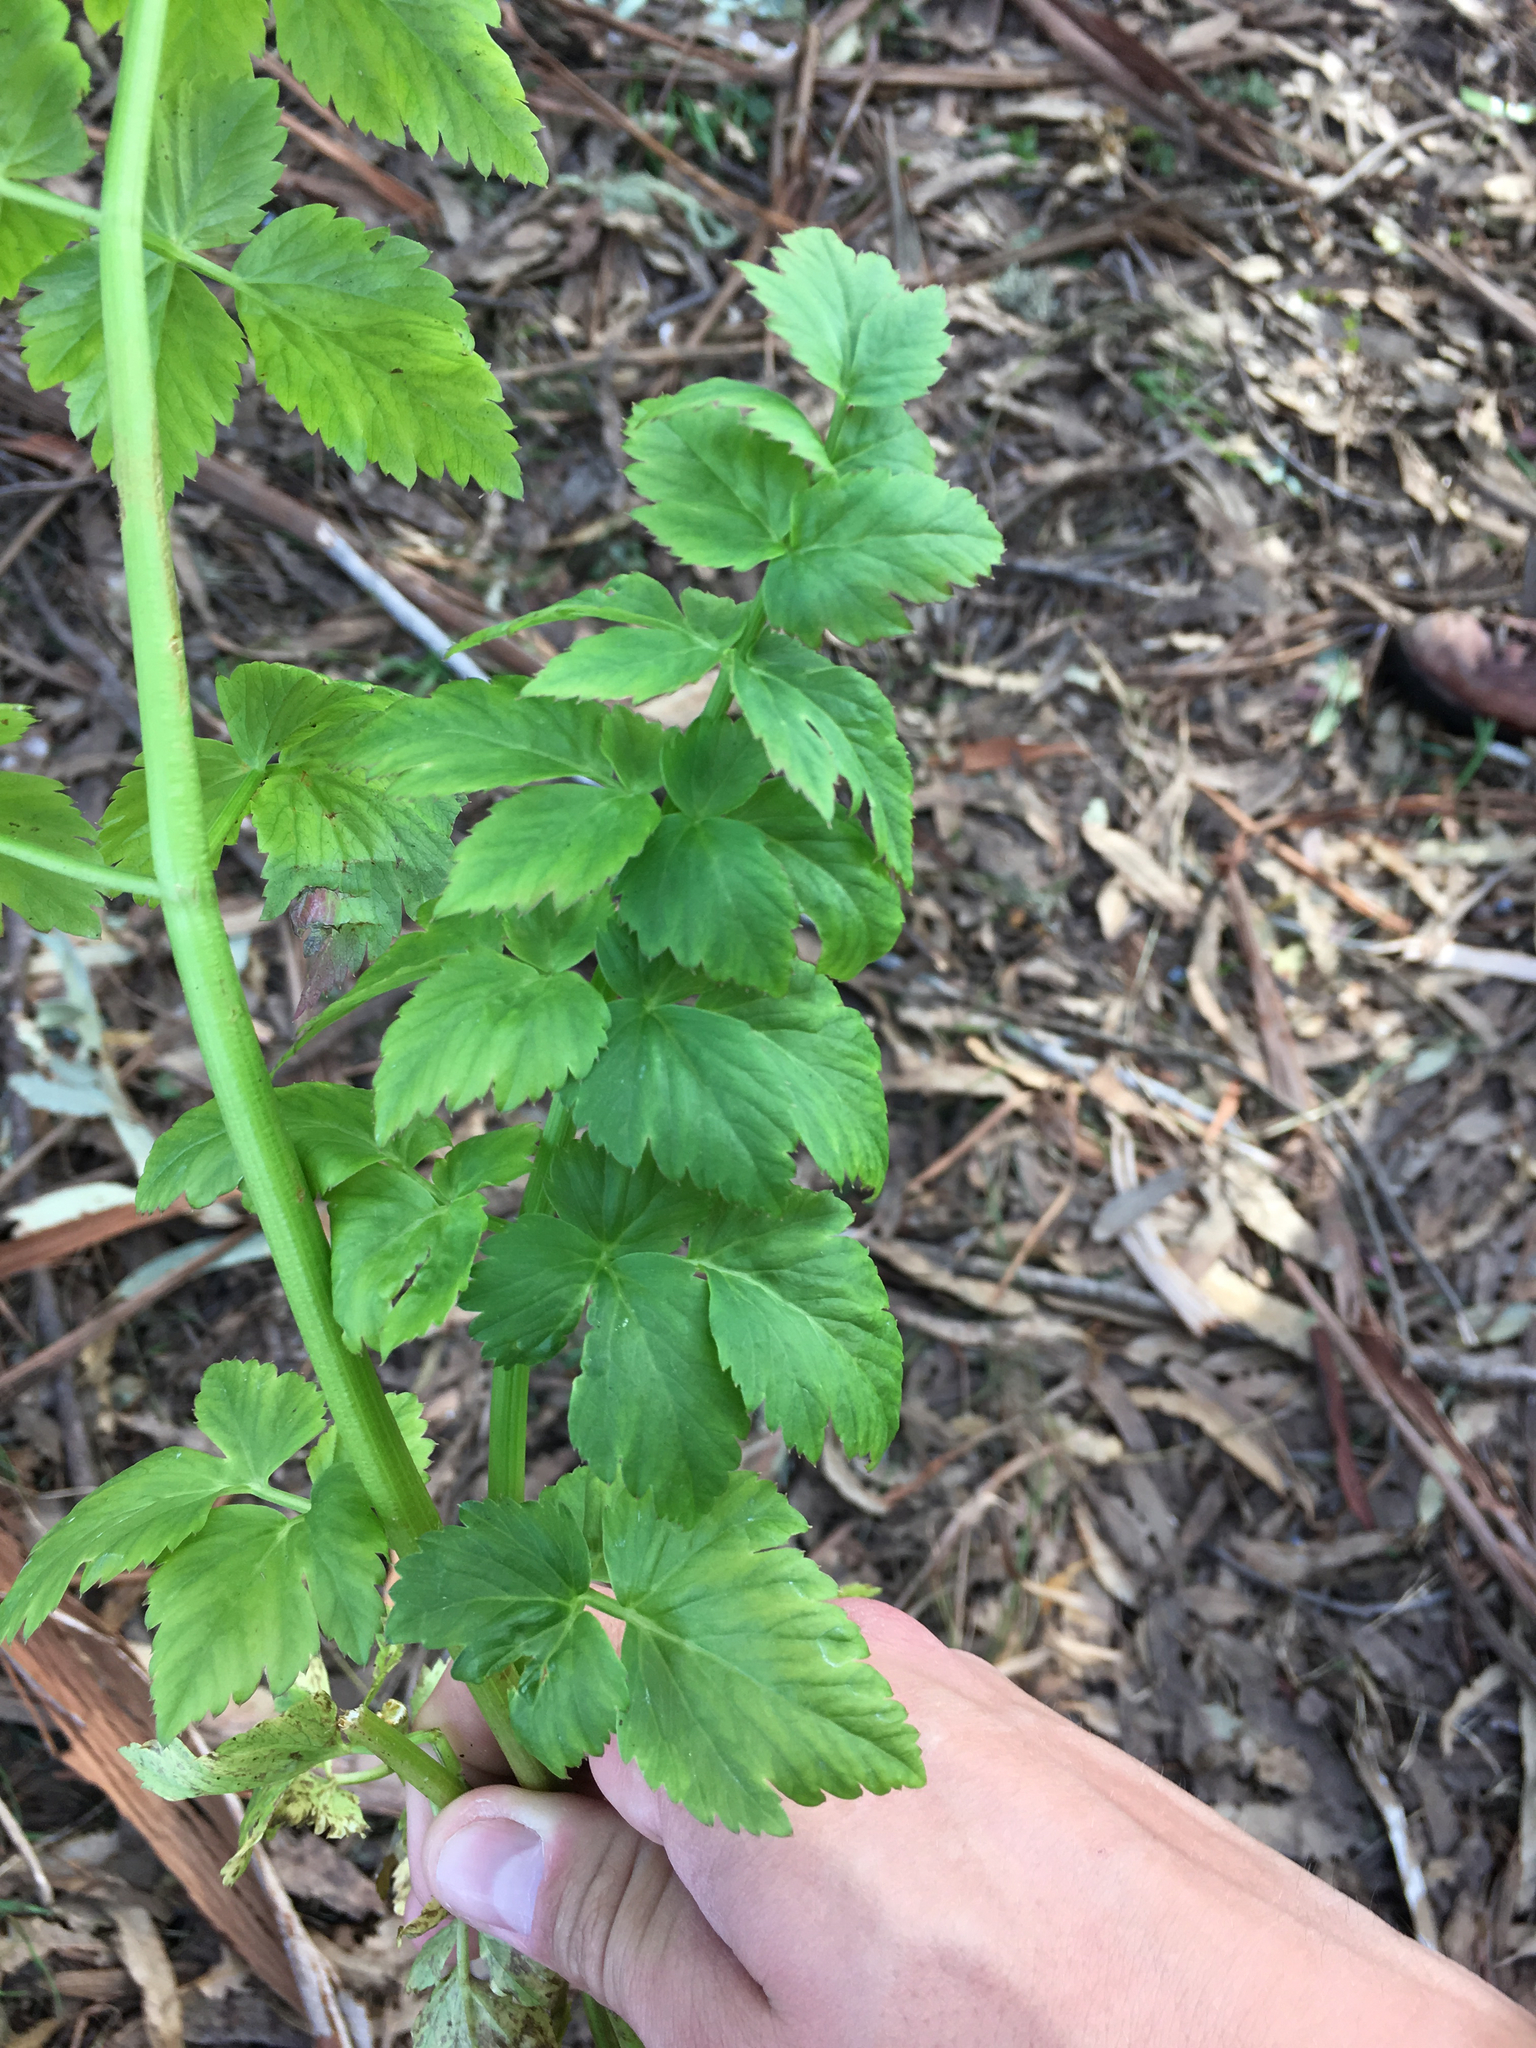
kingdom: Plantae
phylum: Tracheophyta
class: Magnoliopsida
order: Apiales
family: Apiaceae
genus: Oenanthe
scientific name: Oenanthe sarmentosa
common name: American water-parsley
